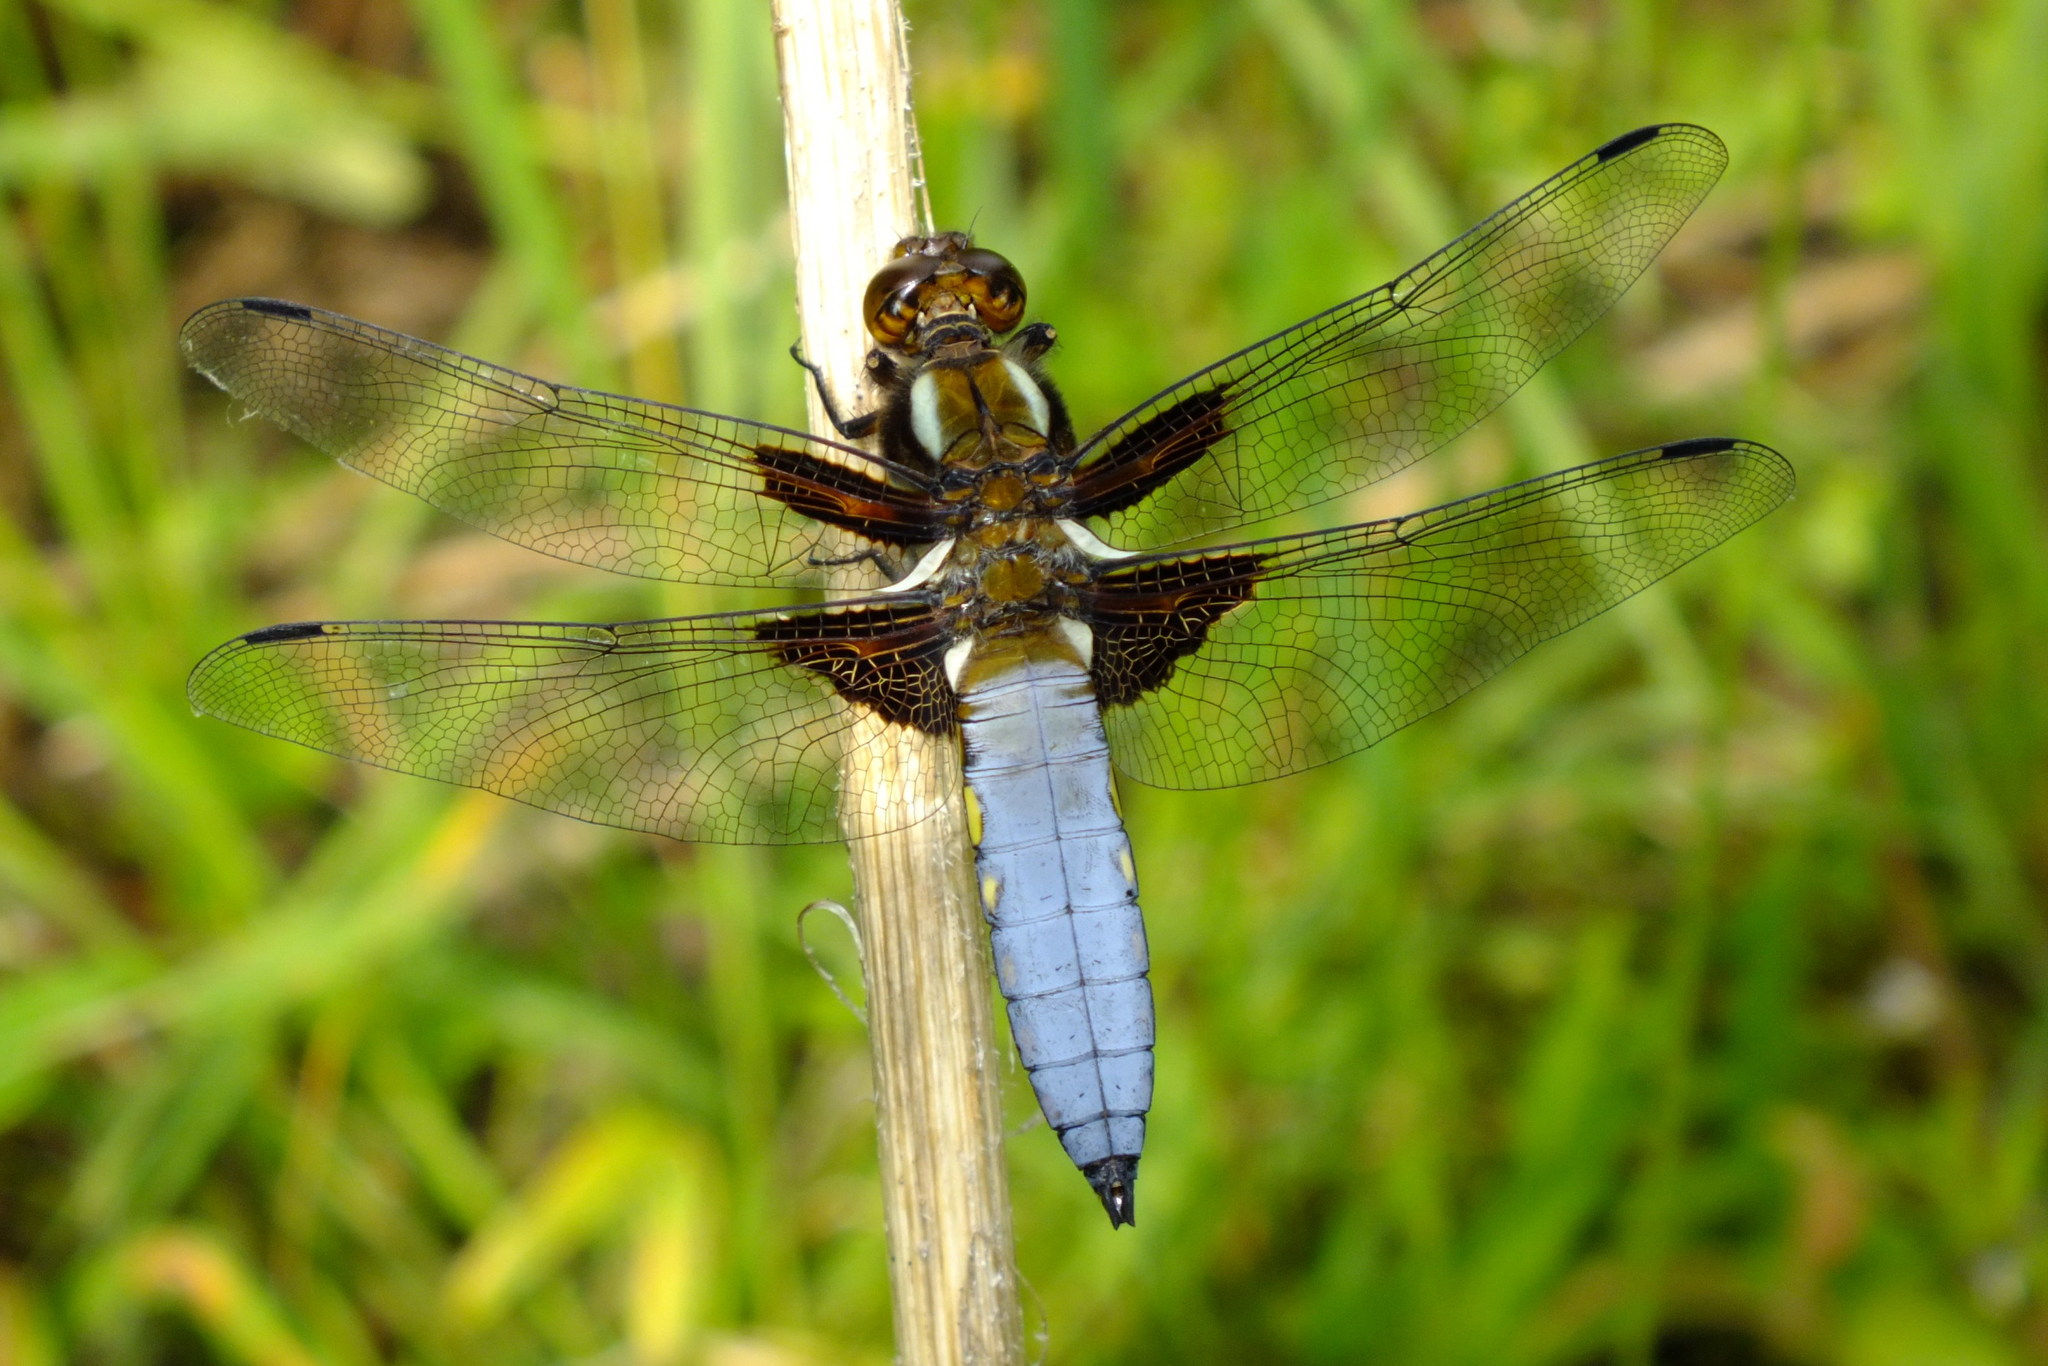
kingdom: Animalia
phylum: Arthropoda
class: Insecta
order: Odonata
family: Libellulidae
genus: Libellula
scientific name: Libellula depressa
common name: Broad-bodied chaser
